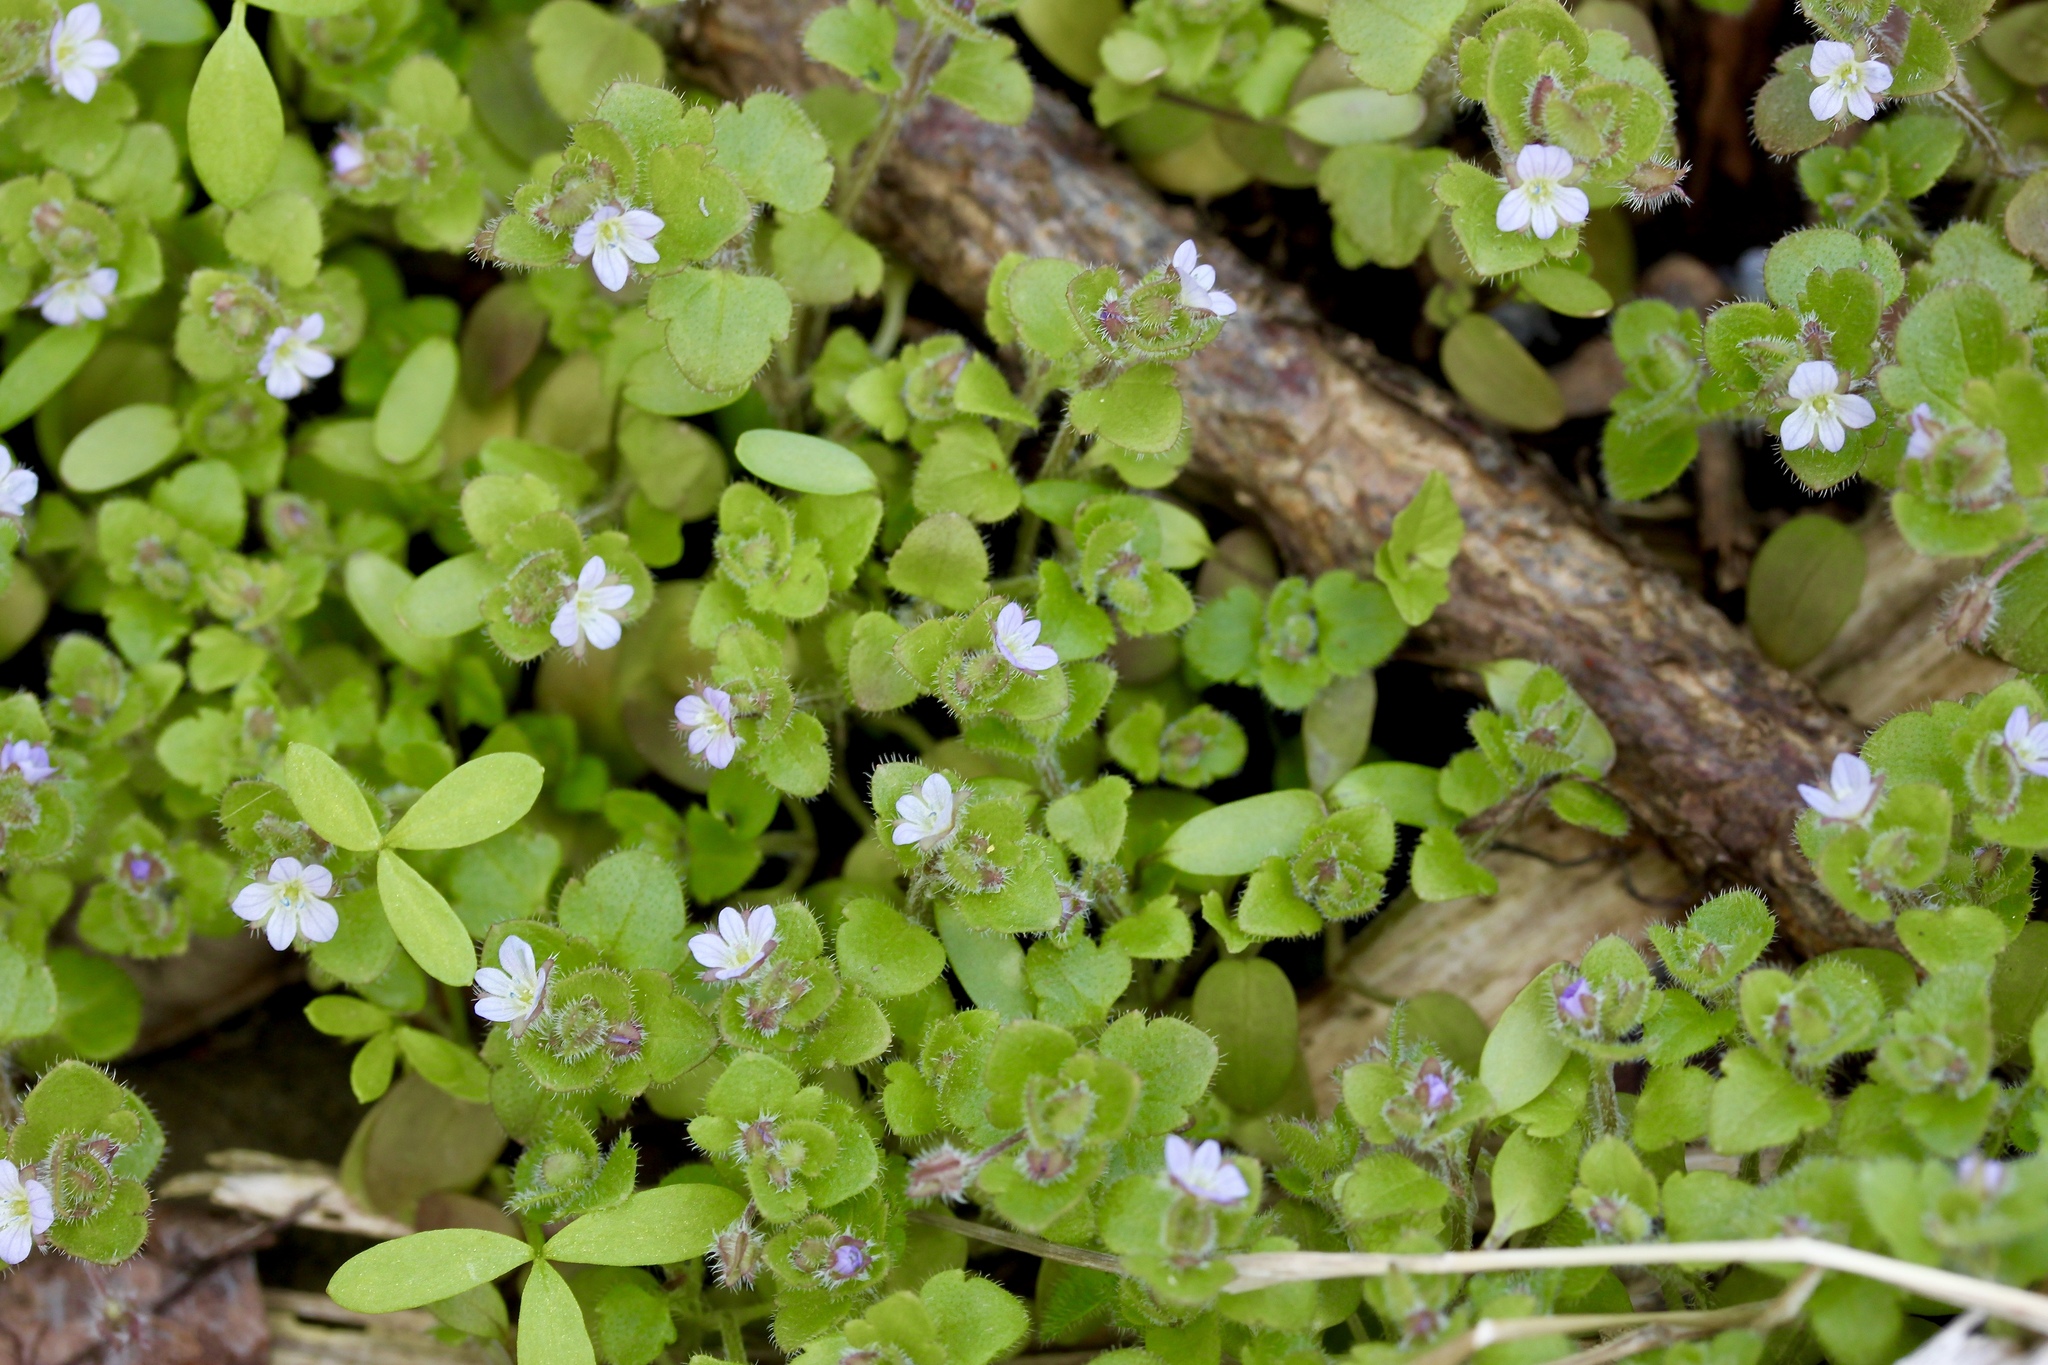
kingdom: Plantae
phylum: Tracheophyta
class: Magnoliopsida
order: Lamiales
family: Plantaginaceae
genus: Veronica
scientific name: Veronica hederifolia
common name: Ivy-leaved speedwell
